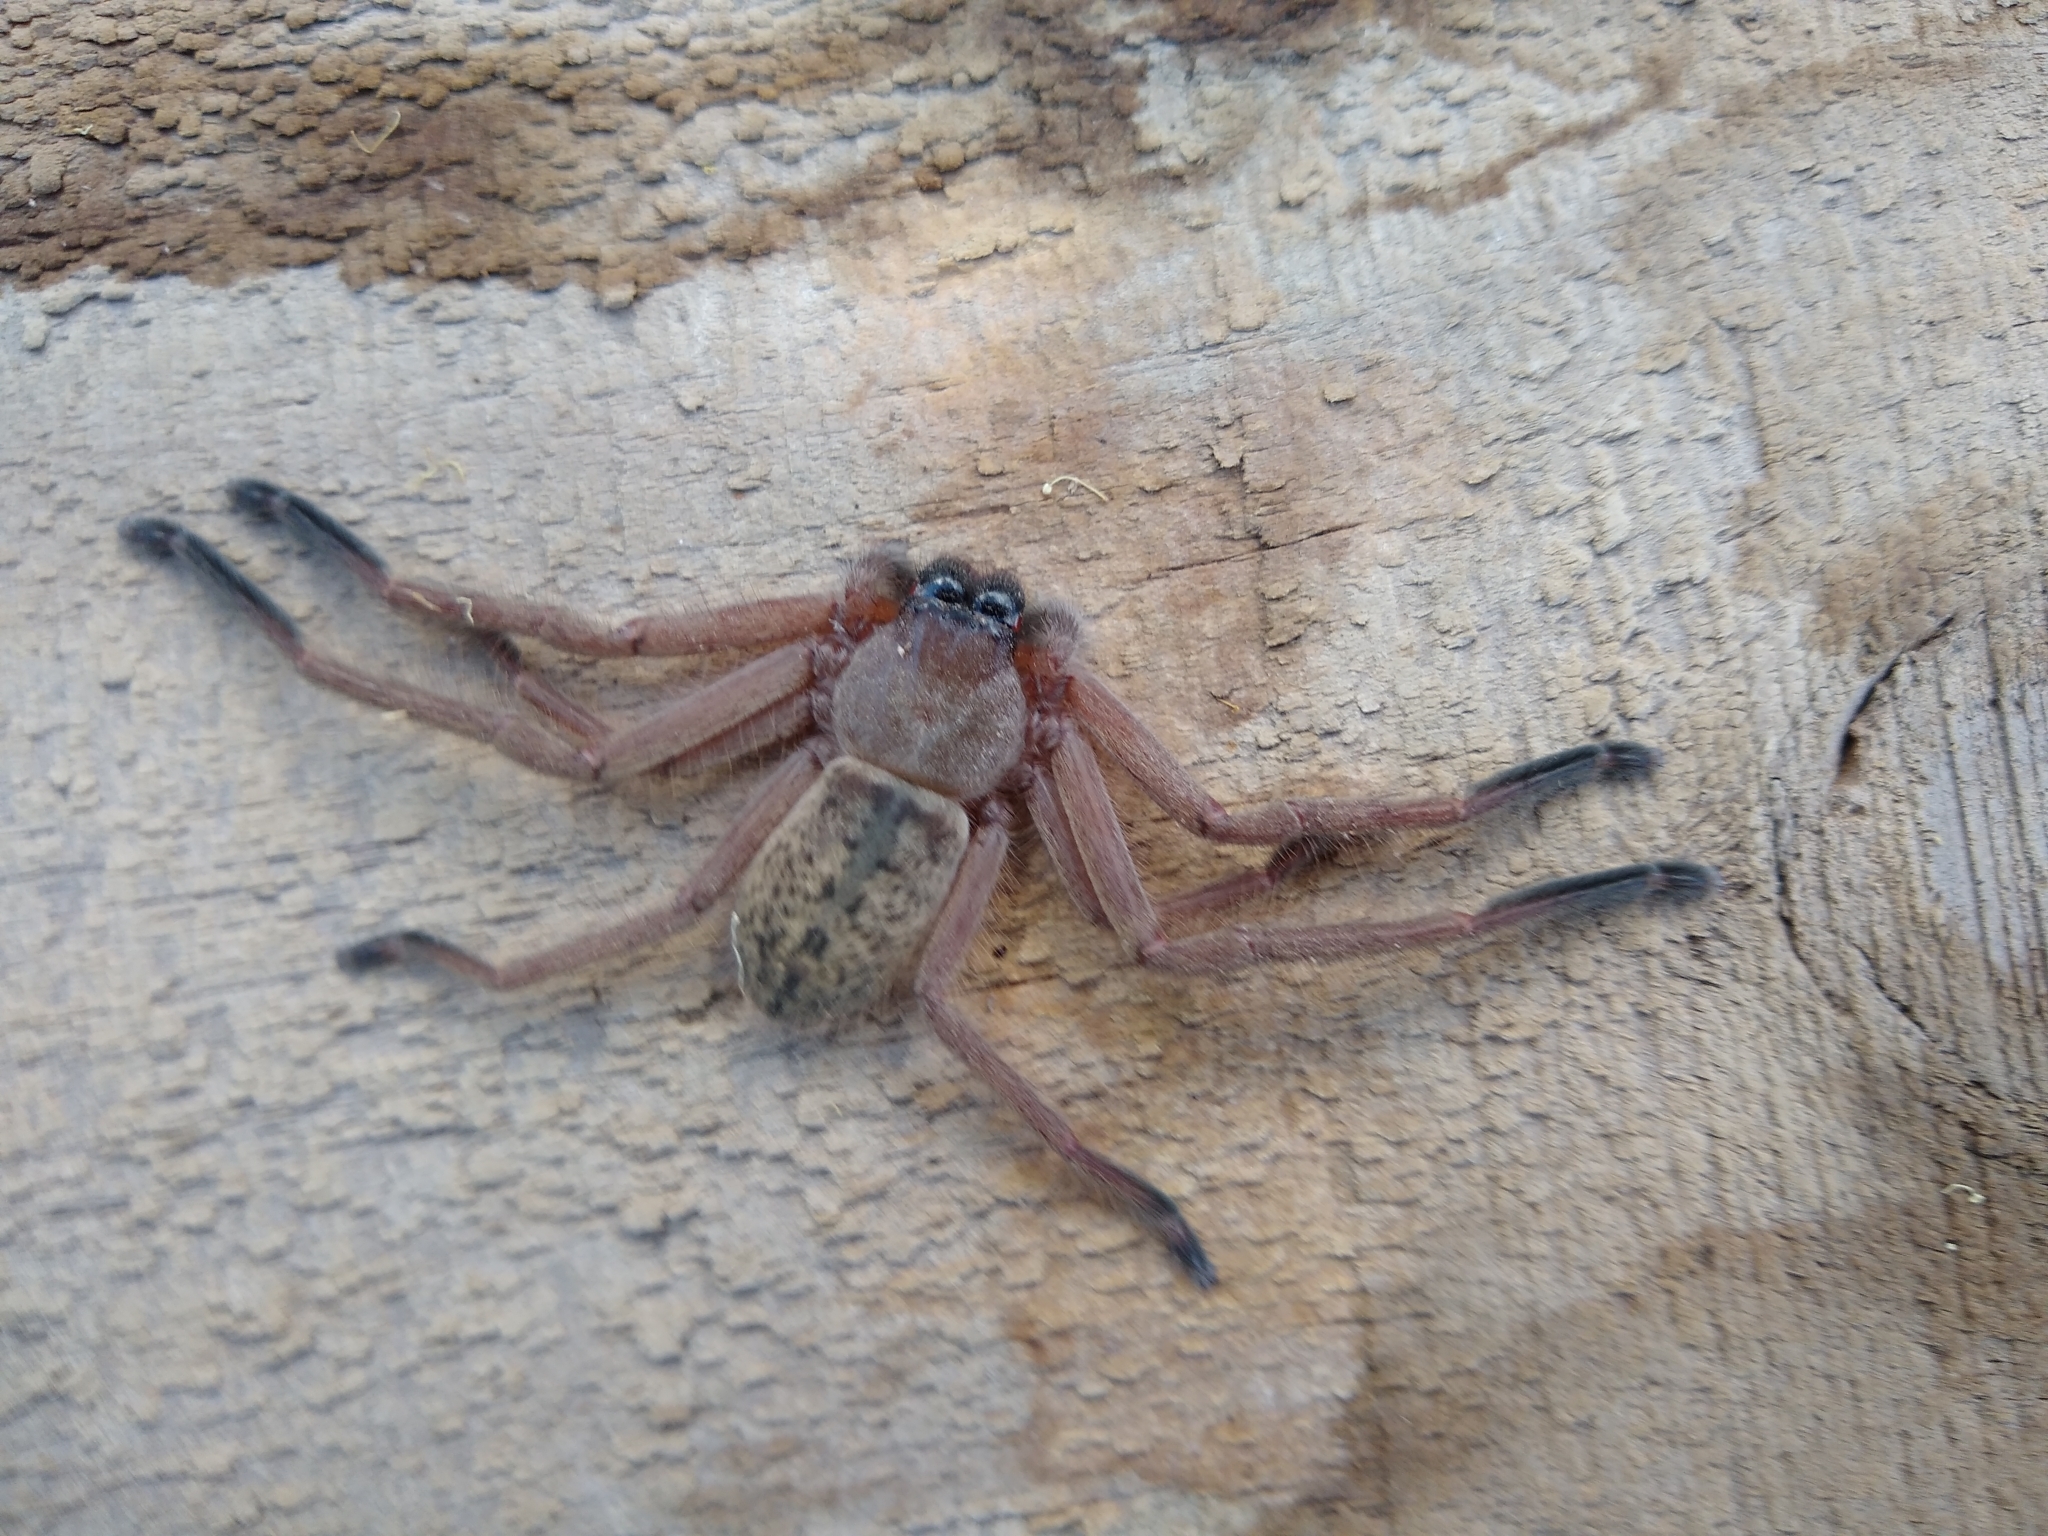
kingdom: Animalia
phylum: Arthropoda
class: Arachnida
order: Araneae
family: Sparassidae
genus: Delena
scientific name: Delena cancerides
